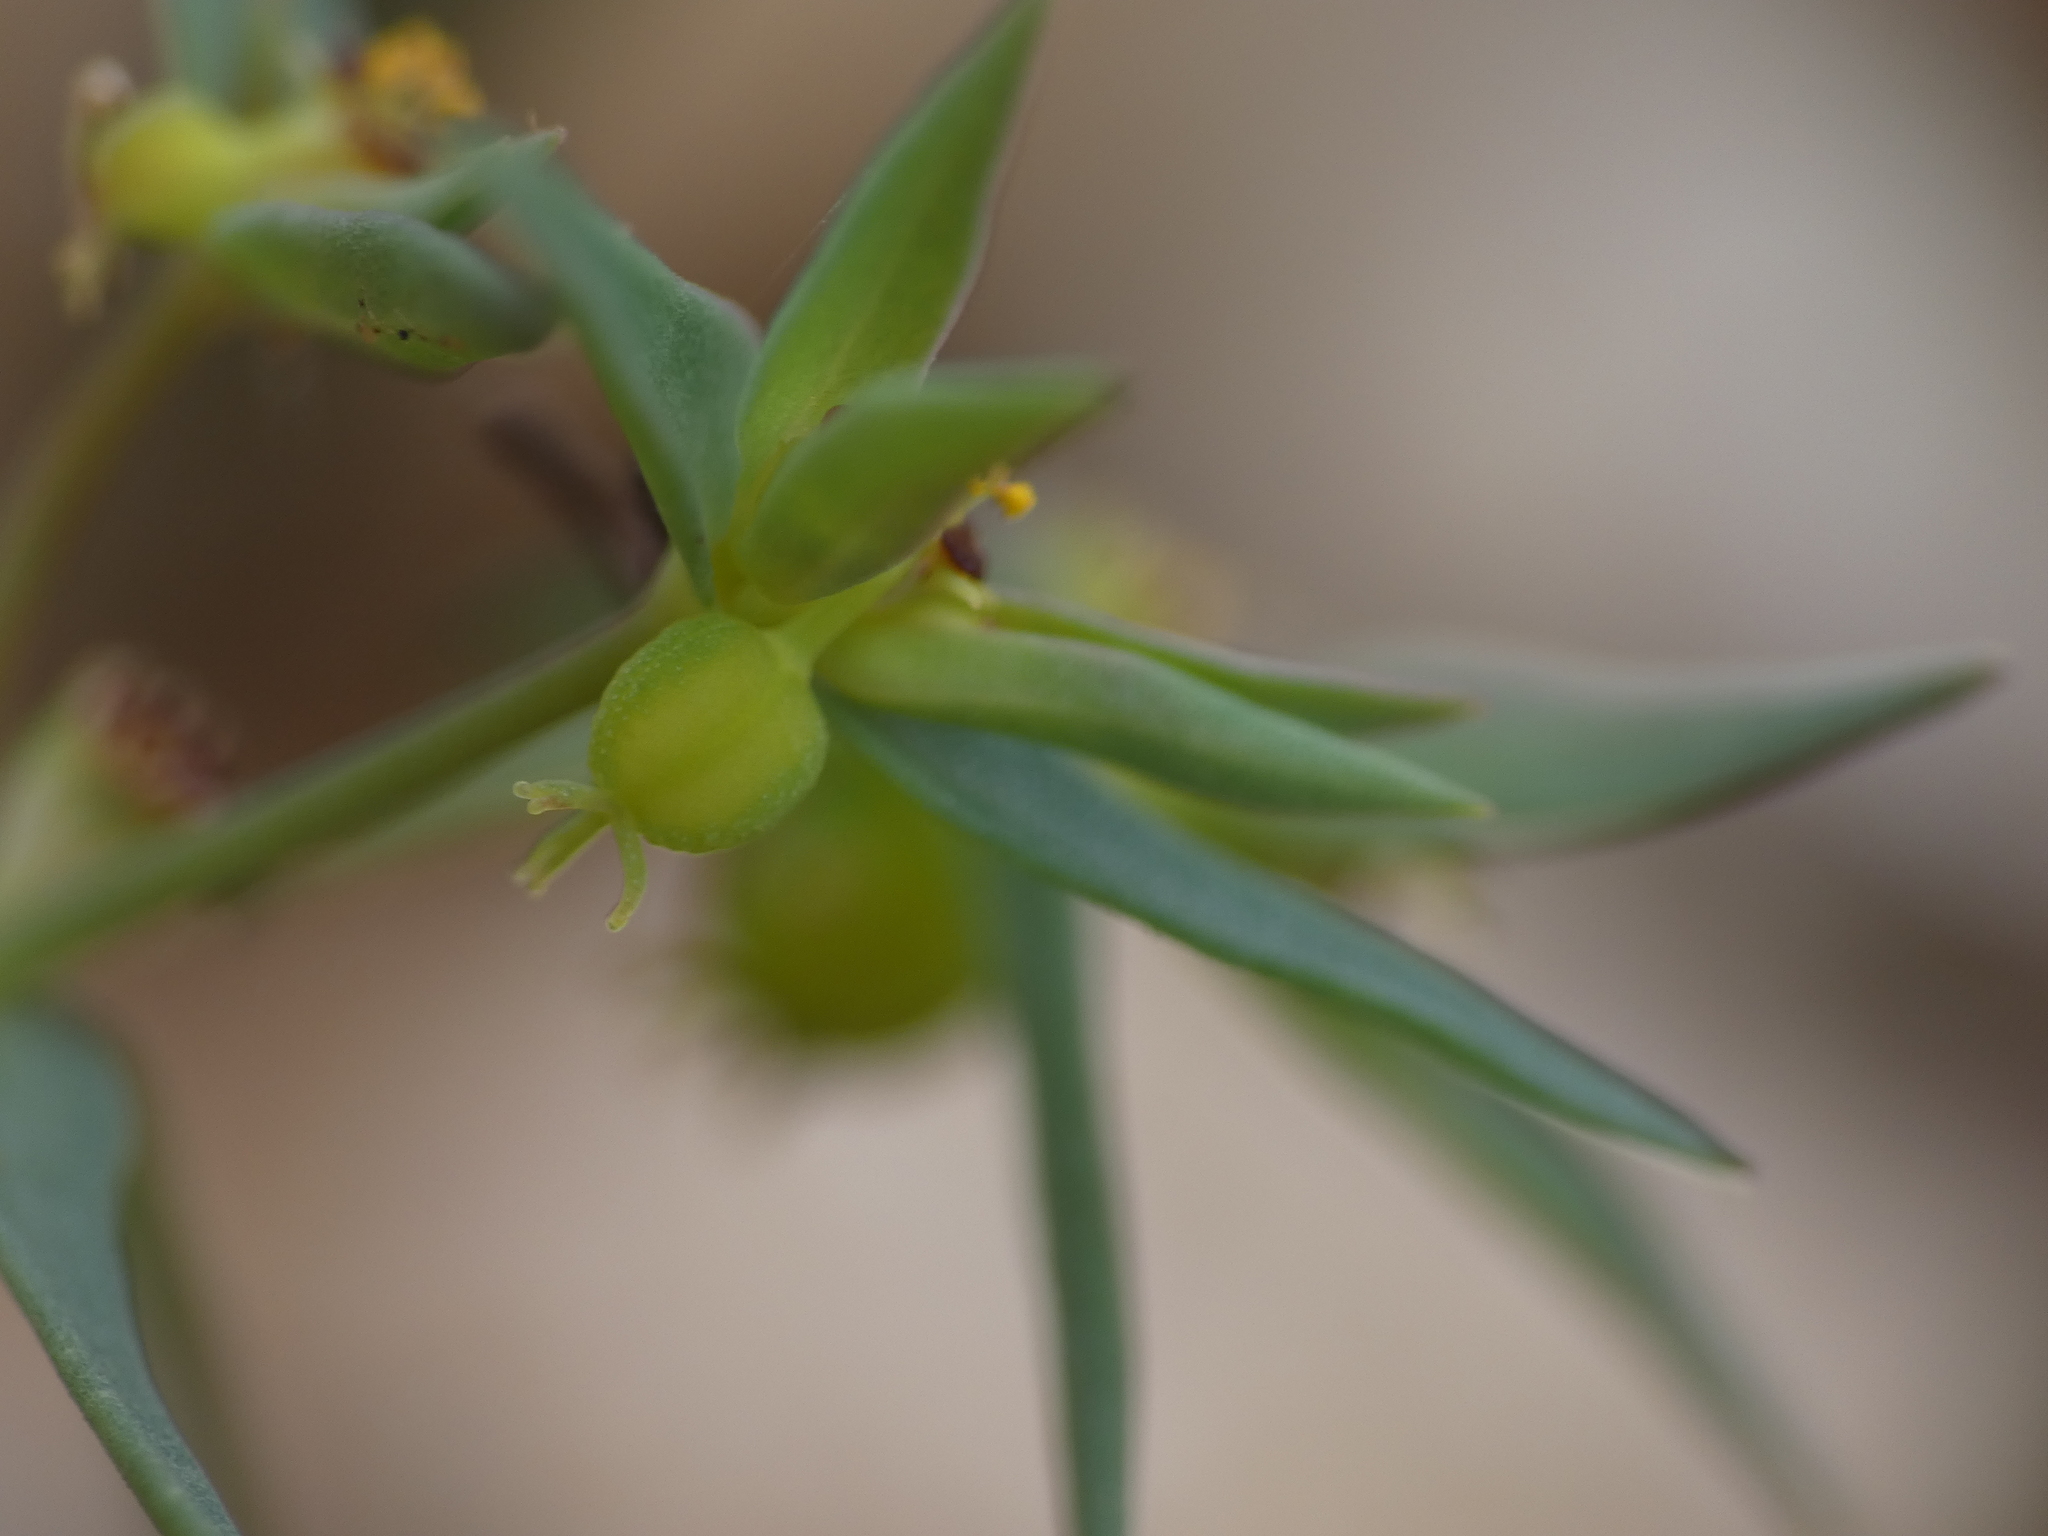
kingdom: Plantae
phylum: Tracheophyta
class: Magnoliopsida
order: Malpighiales
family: Euphorbiaceae
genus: Euphorbia
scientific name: Euphorbia exigua
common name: Dwarf spurge
